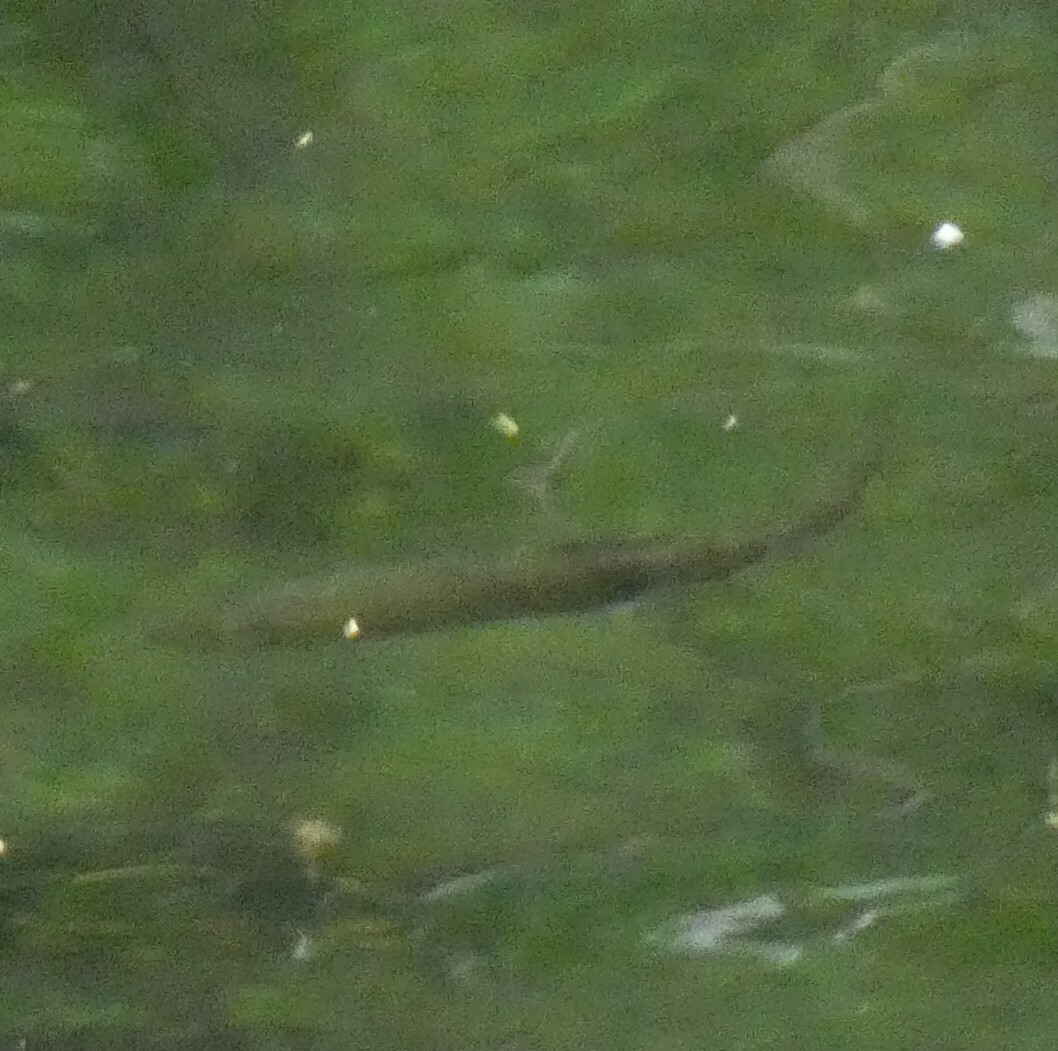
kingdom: Animalia
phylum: Chordata
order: Salmoniformes
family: Salmonidae
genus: Oncorhynchus
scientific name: Oncorhynchus mykiss
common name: Rainbow trout
